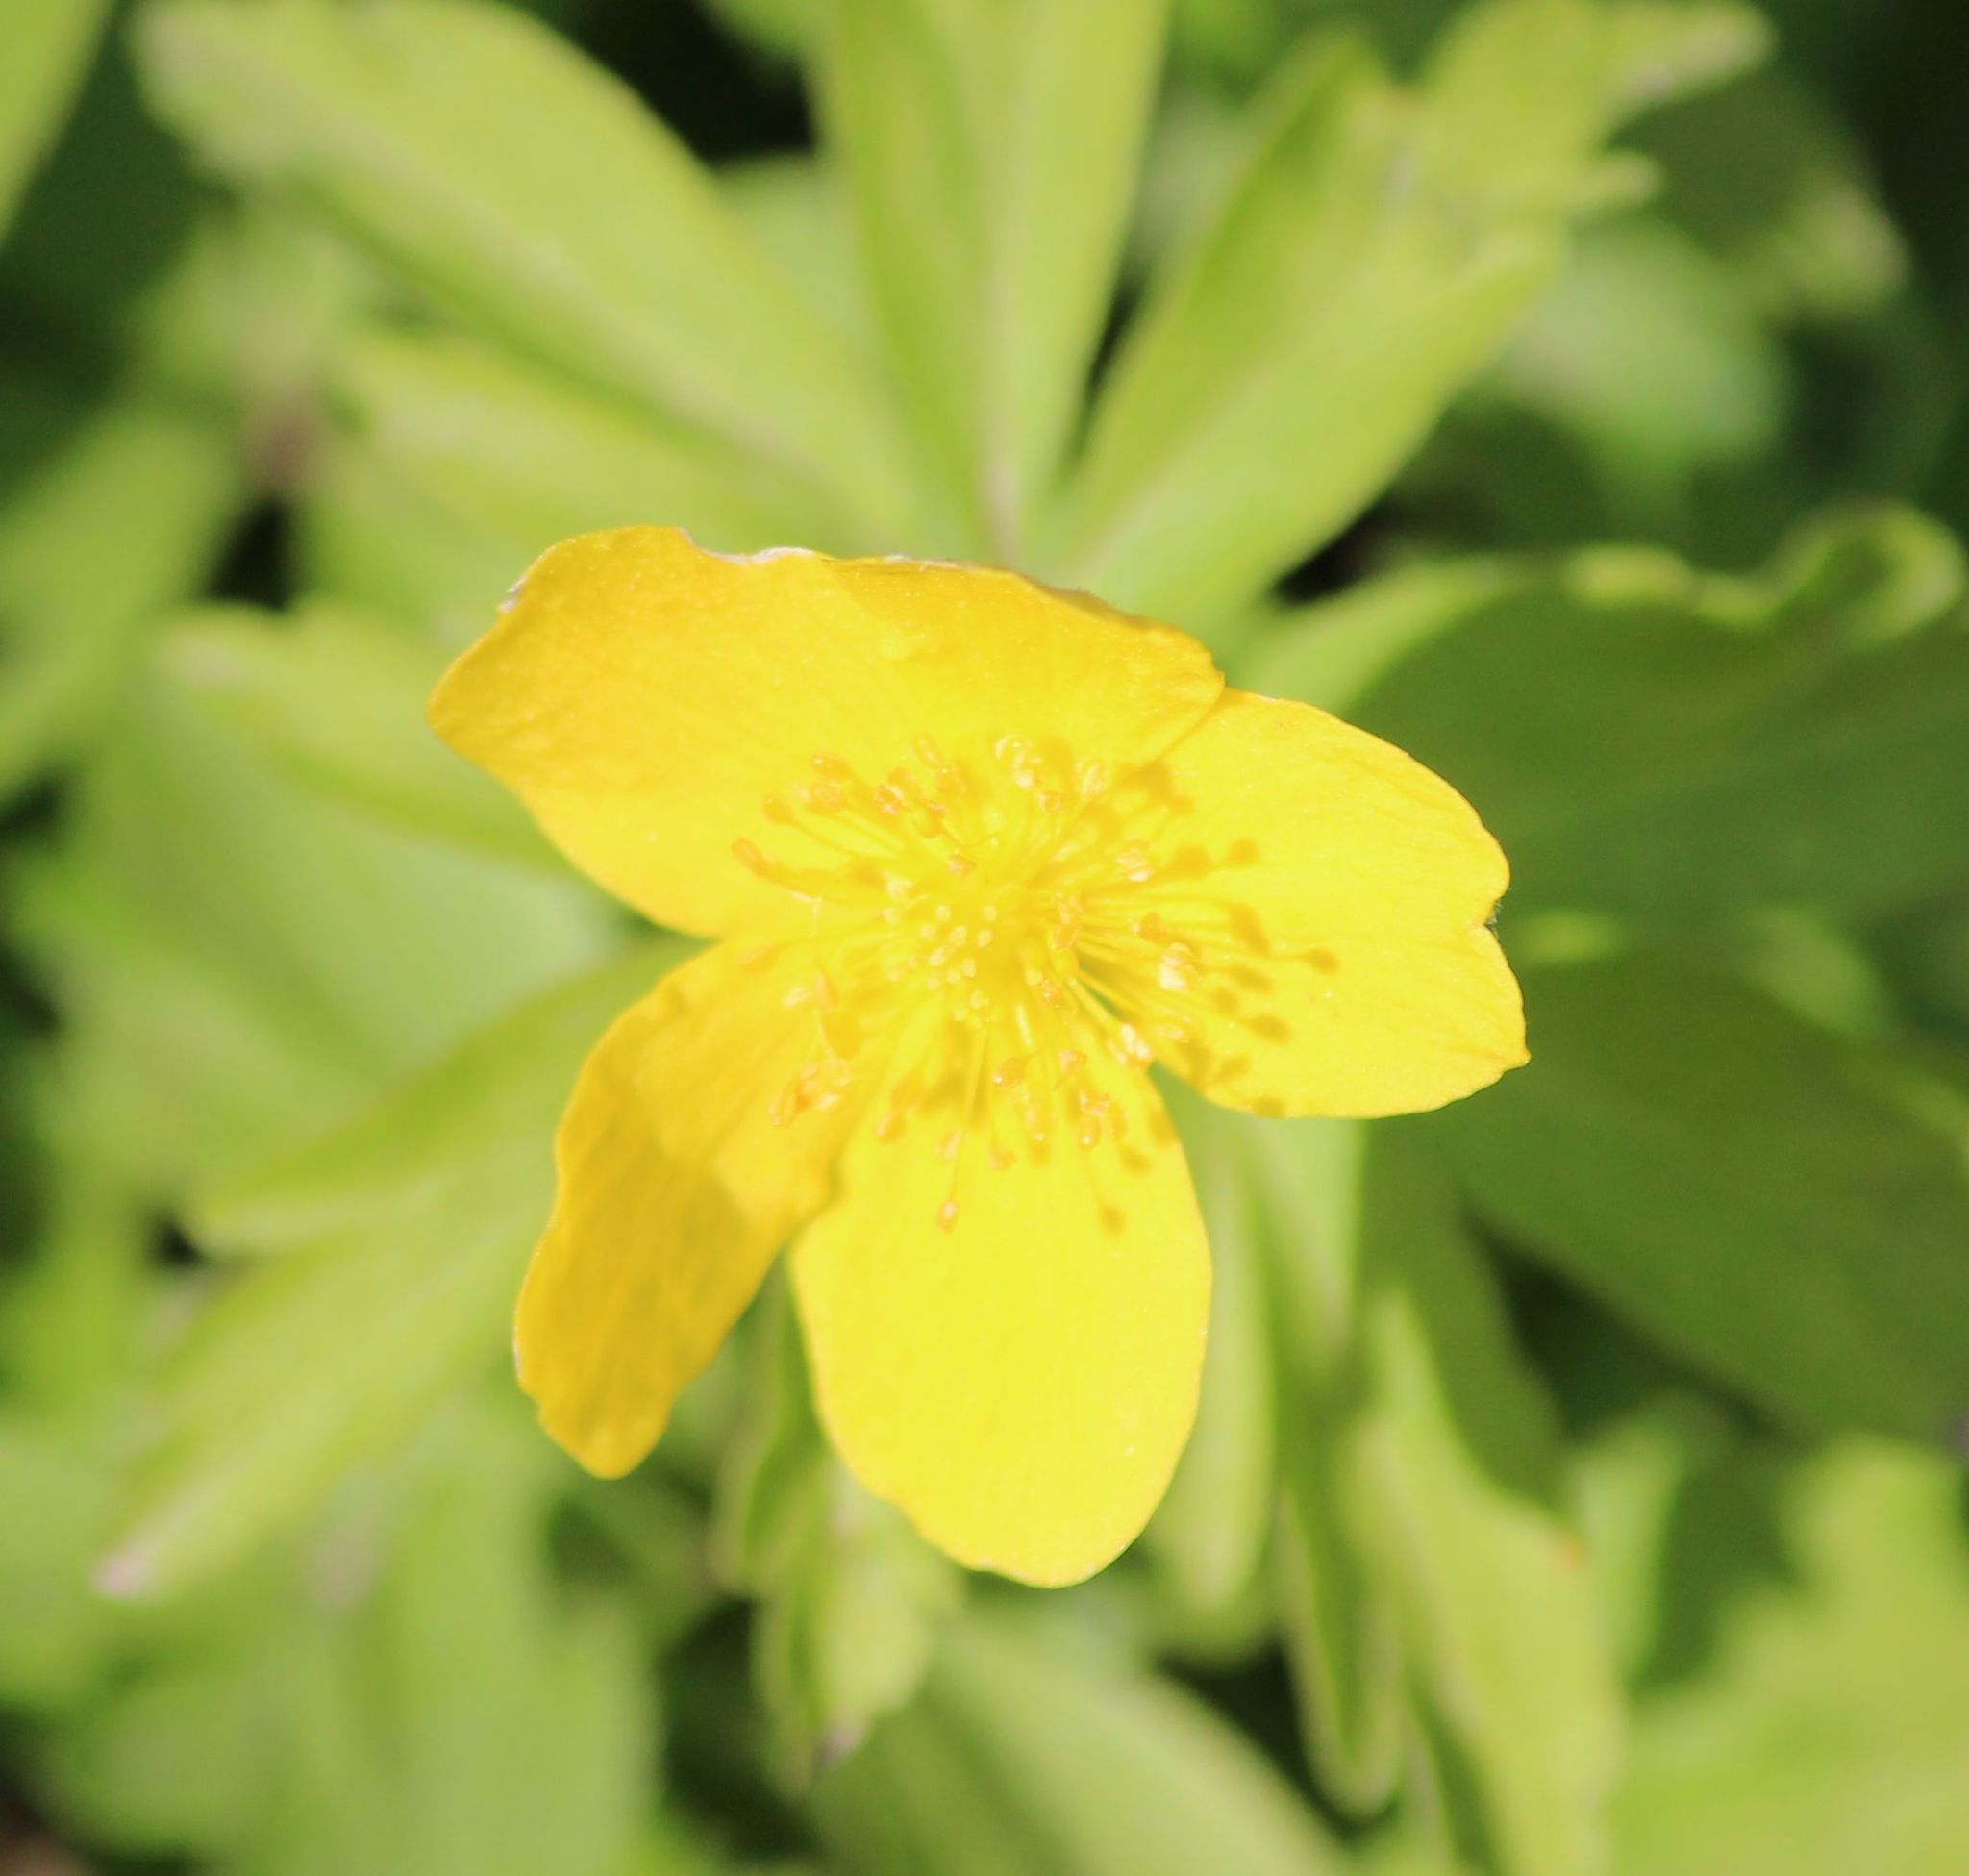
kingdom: Plantae
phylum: Tracheophyta
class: Magnoliopsida
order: Ranunculales
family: Ranunculaceae
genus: Anemone
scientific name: Anemone ranunculoides
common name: Yellow anemone
